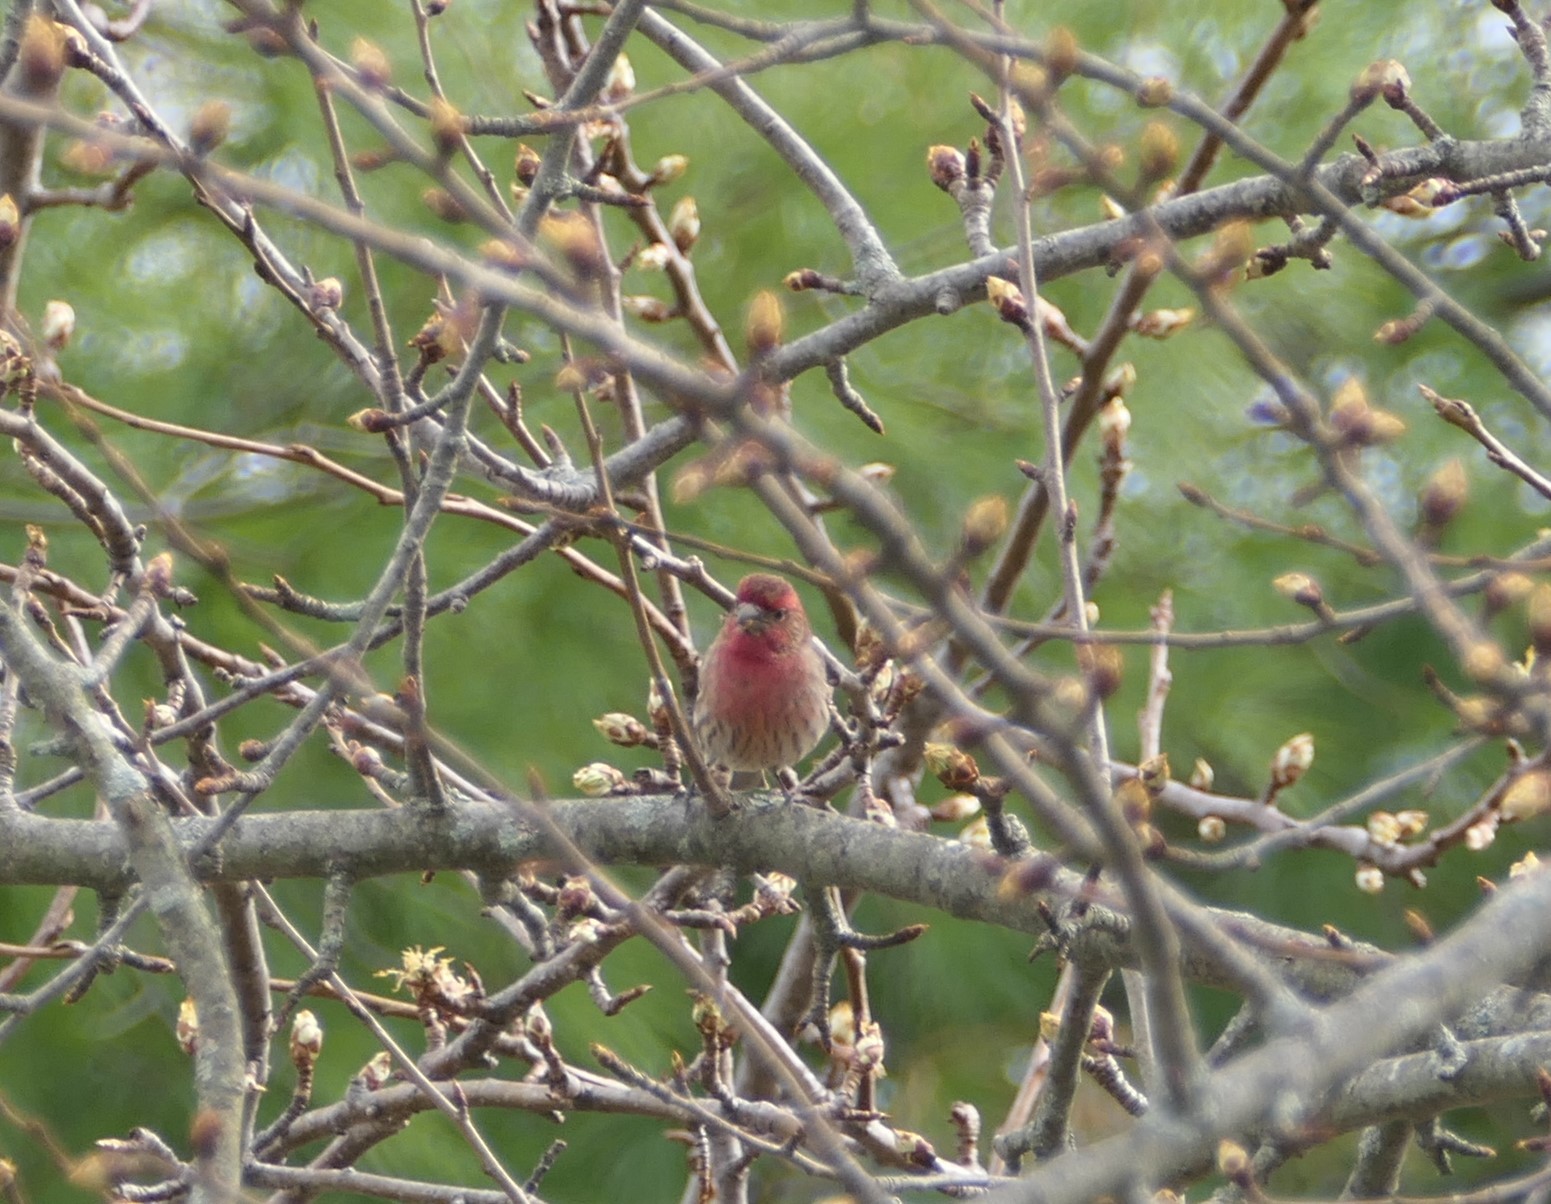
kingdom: Animalia
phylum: Chordata
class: Aves
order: Passeriformes
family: Fringillidae
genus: Haemorhous
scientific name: Haemorhous mexicanus
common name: House finch
